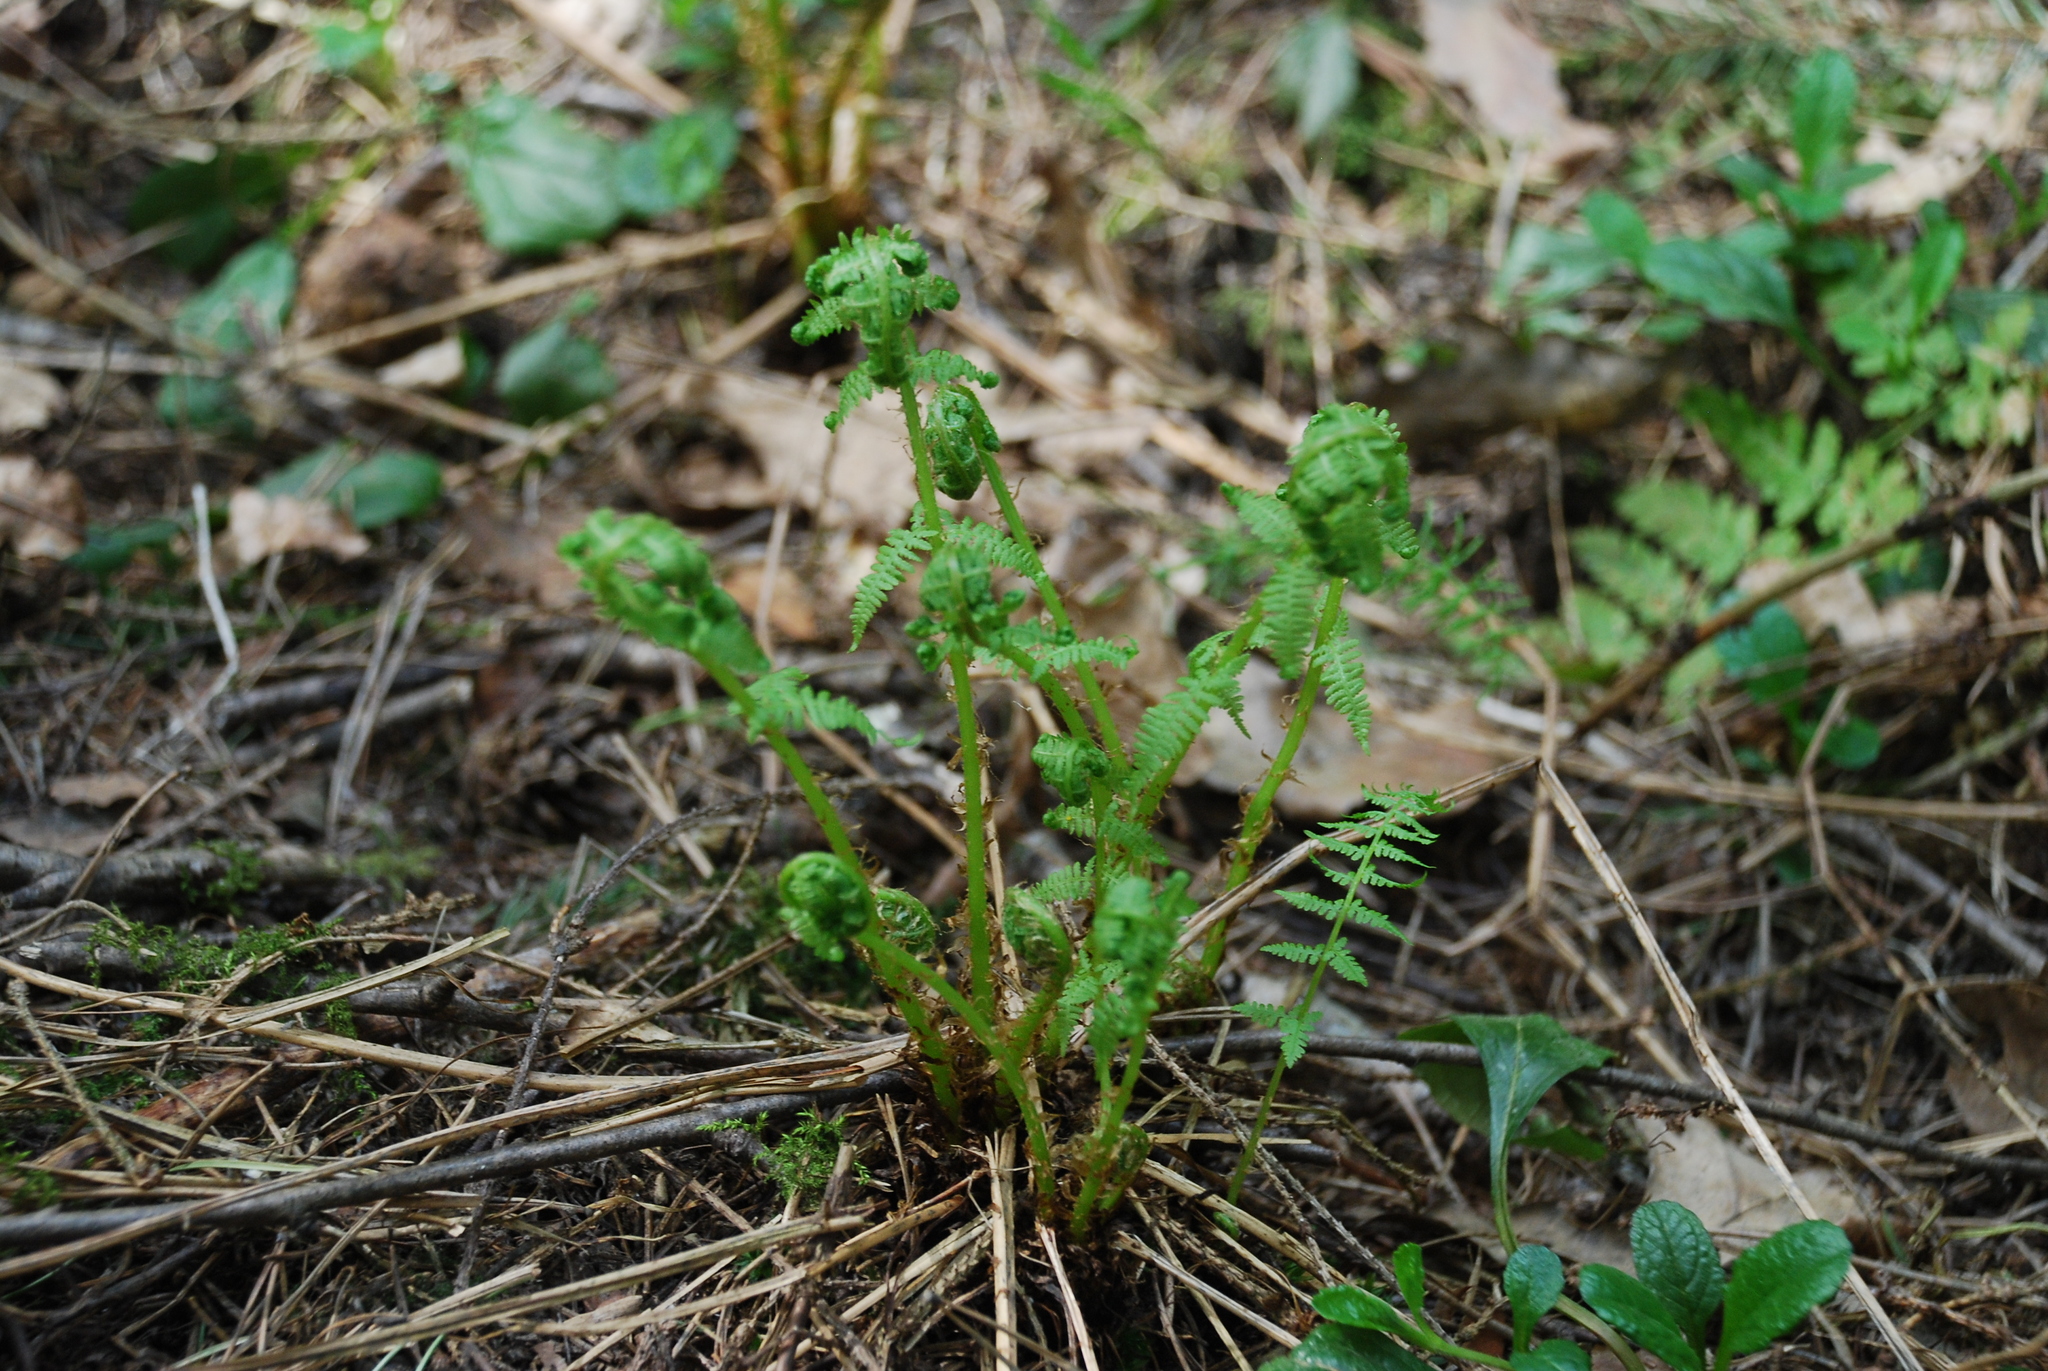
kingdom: Plantae
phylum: Tracheophyta
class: Polypodiopsida
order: Polypodiales
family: Athyriaceae
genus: Athyrium
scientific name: Athyrium filix-femina
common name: Lady fern
